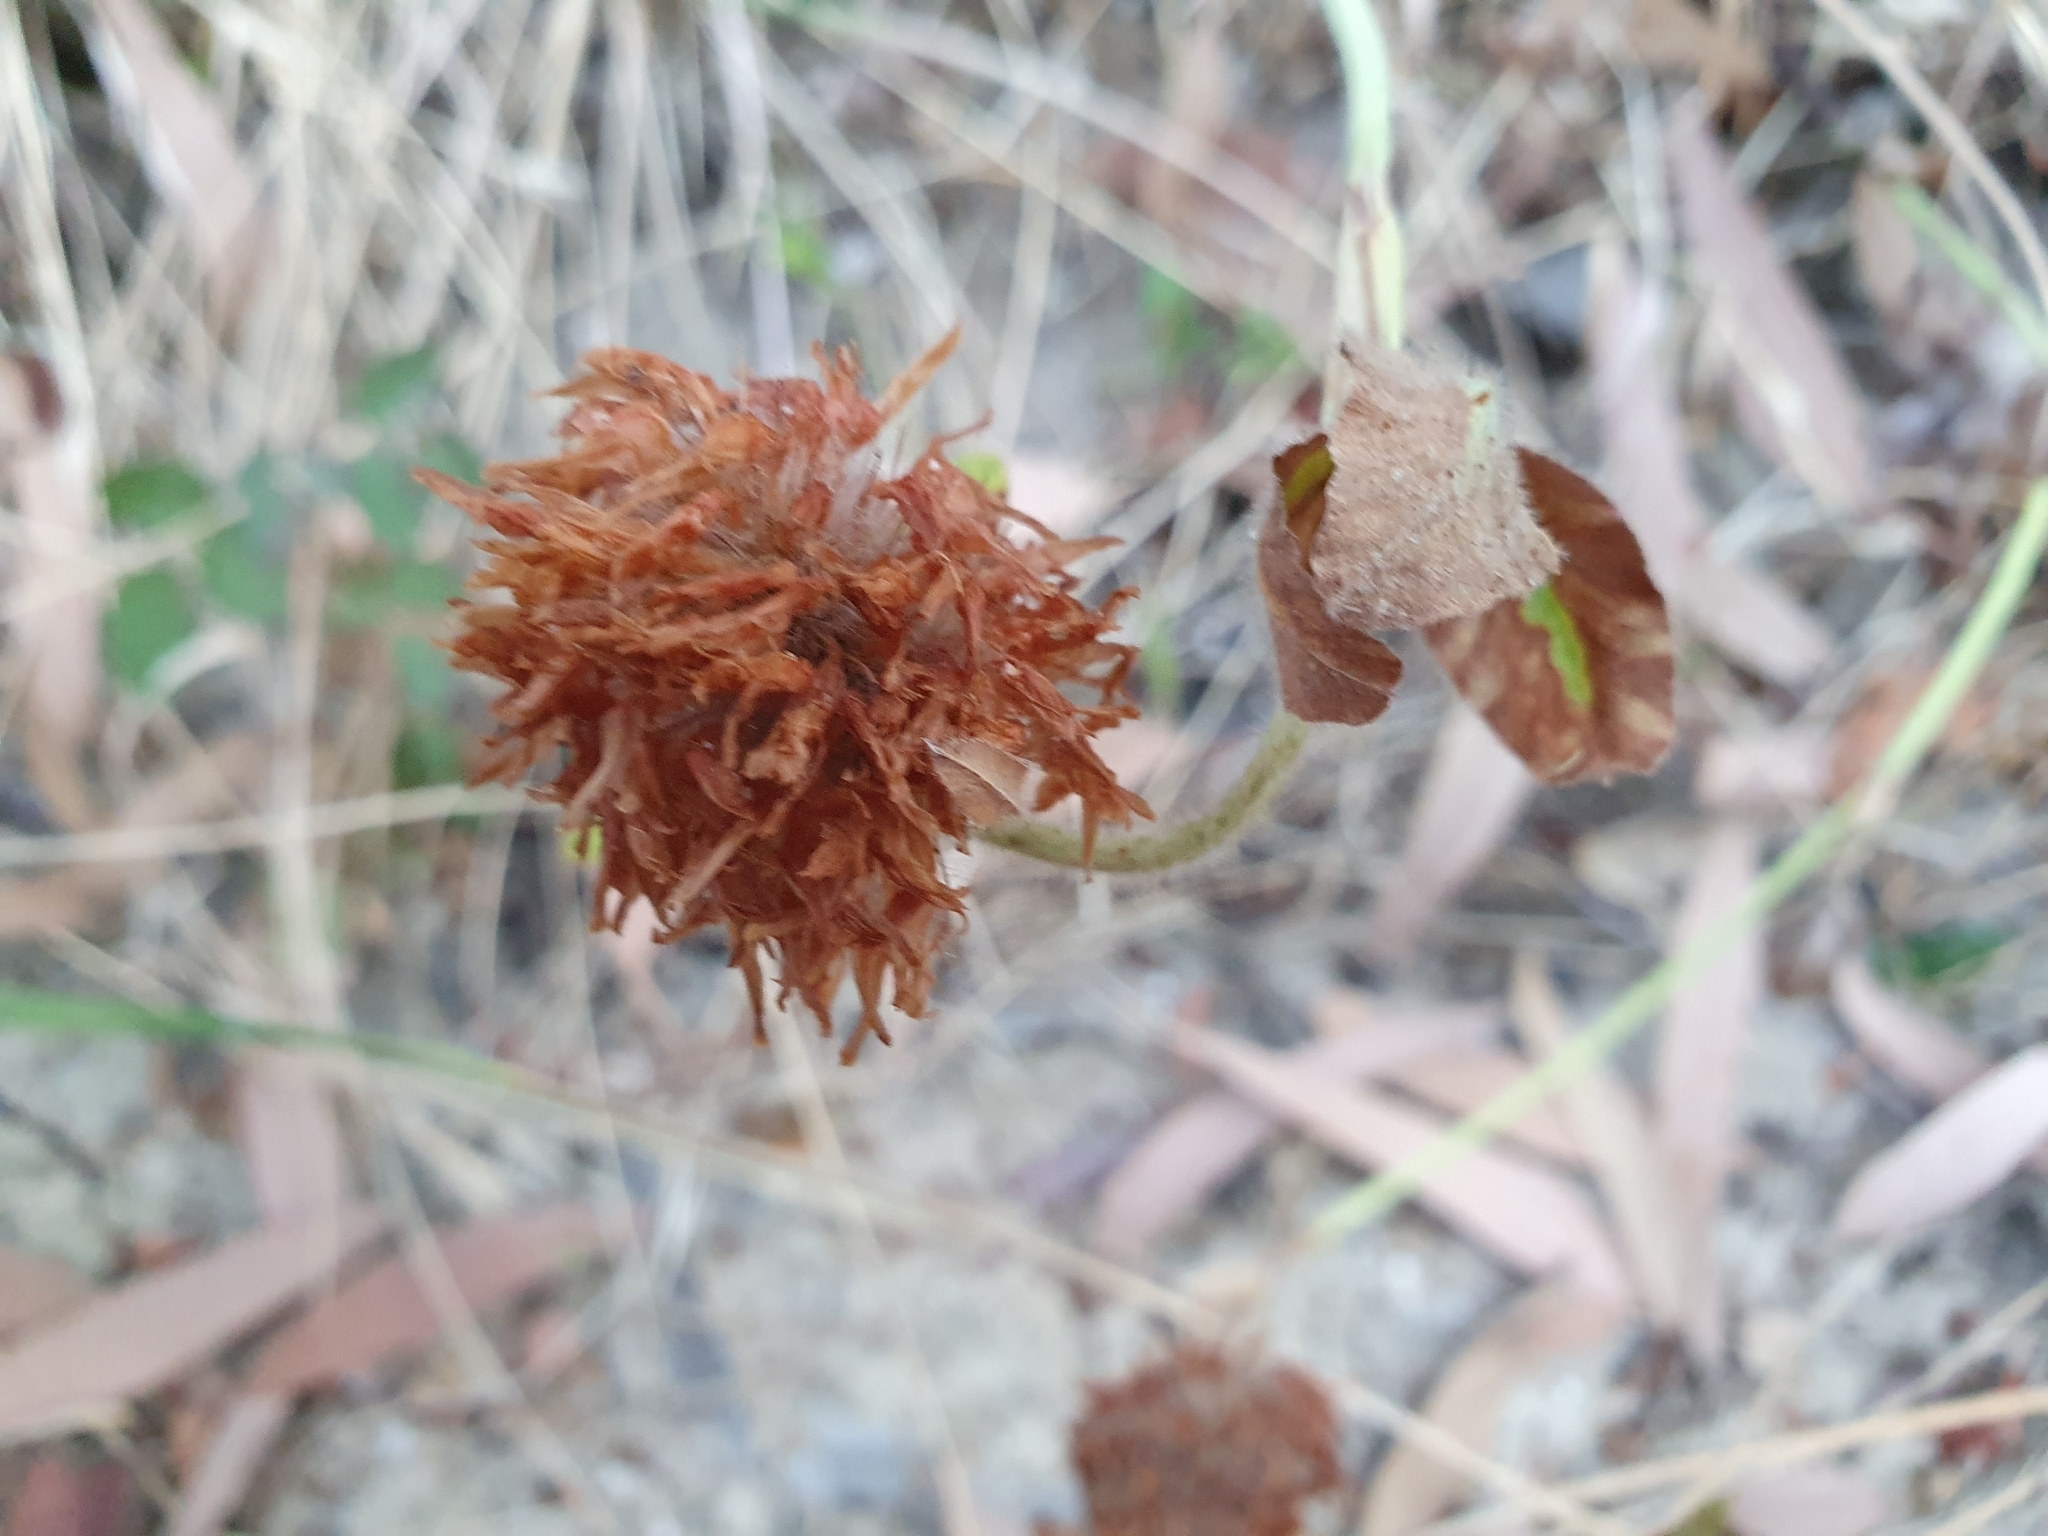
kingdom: Plantae
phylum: Tracheophyta
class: Magnoliopsida
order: Fabales
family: Fabaceae
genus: Trifolium
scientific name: Trifolium pratense
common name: Red clover
